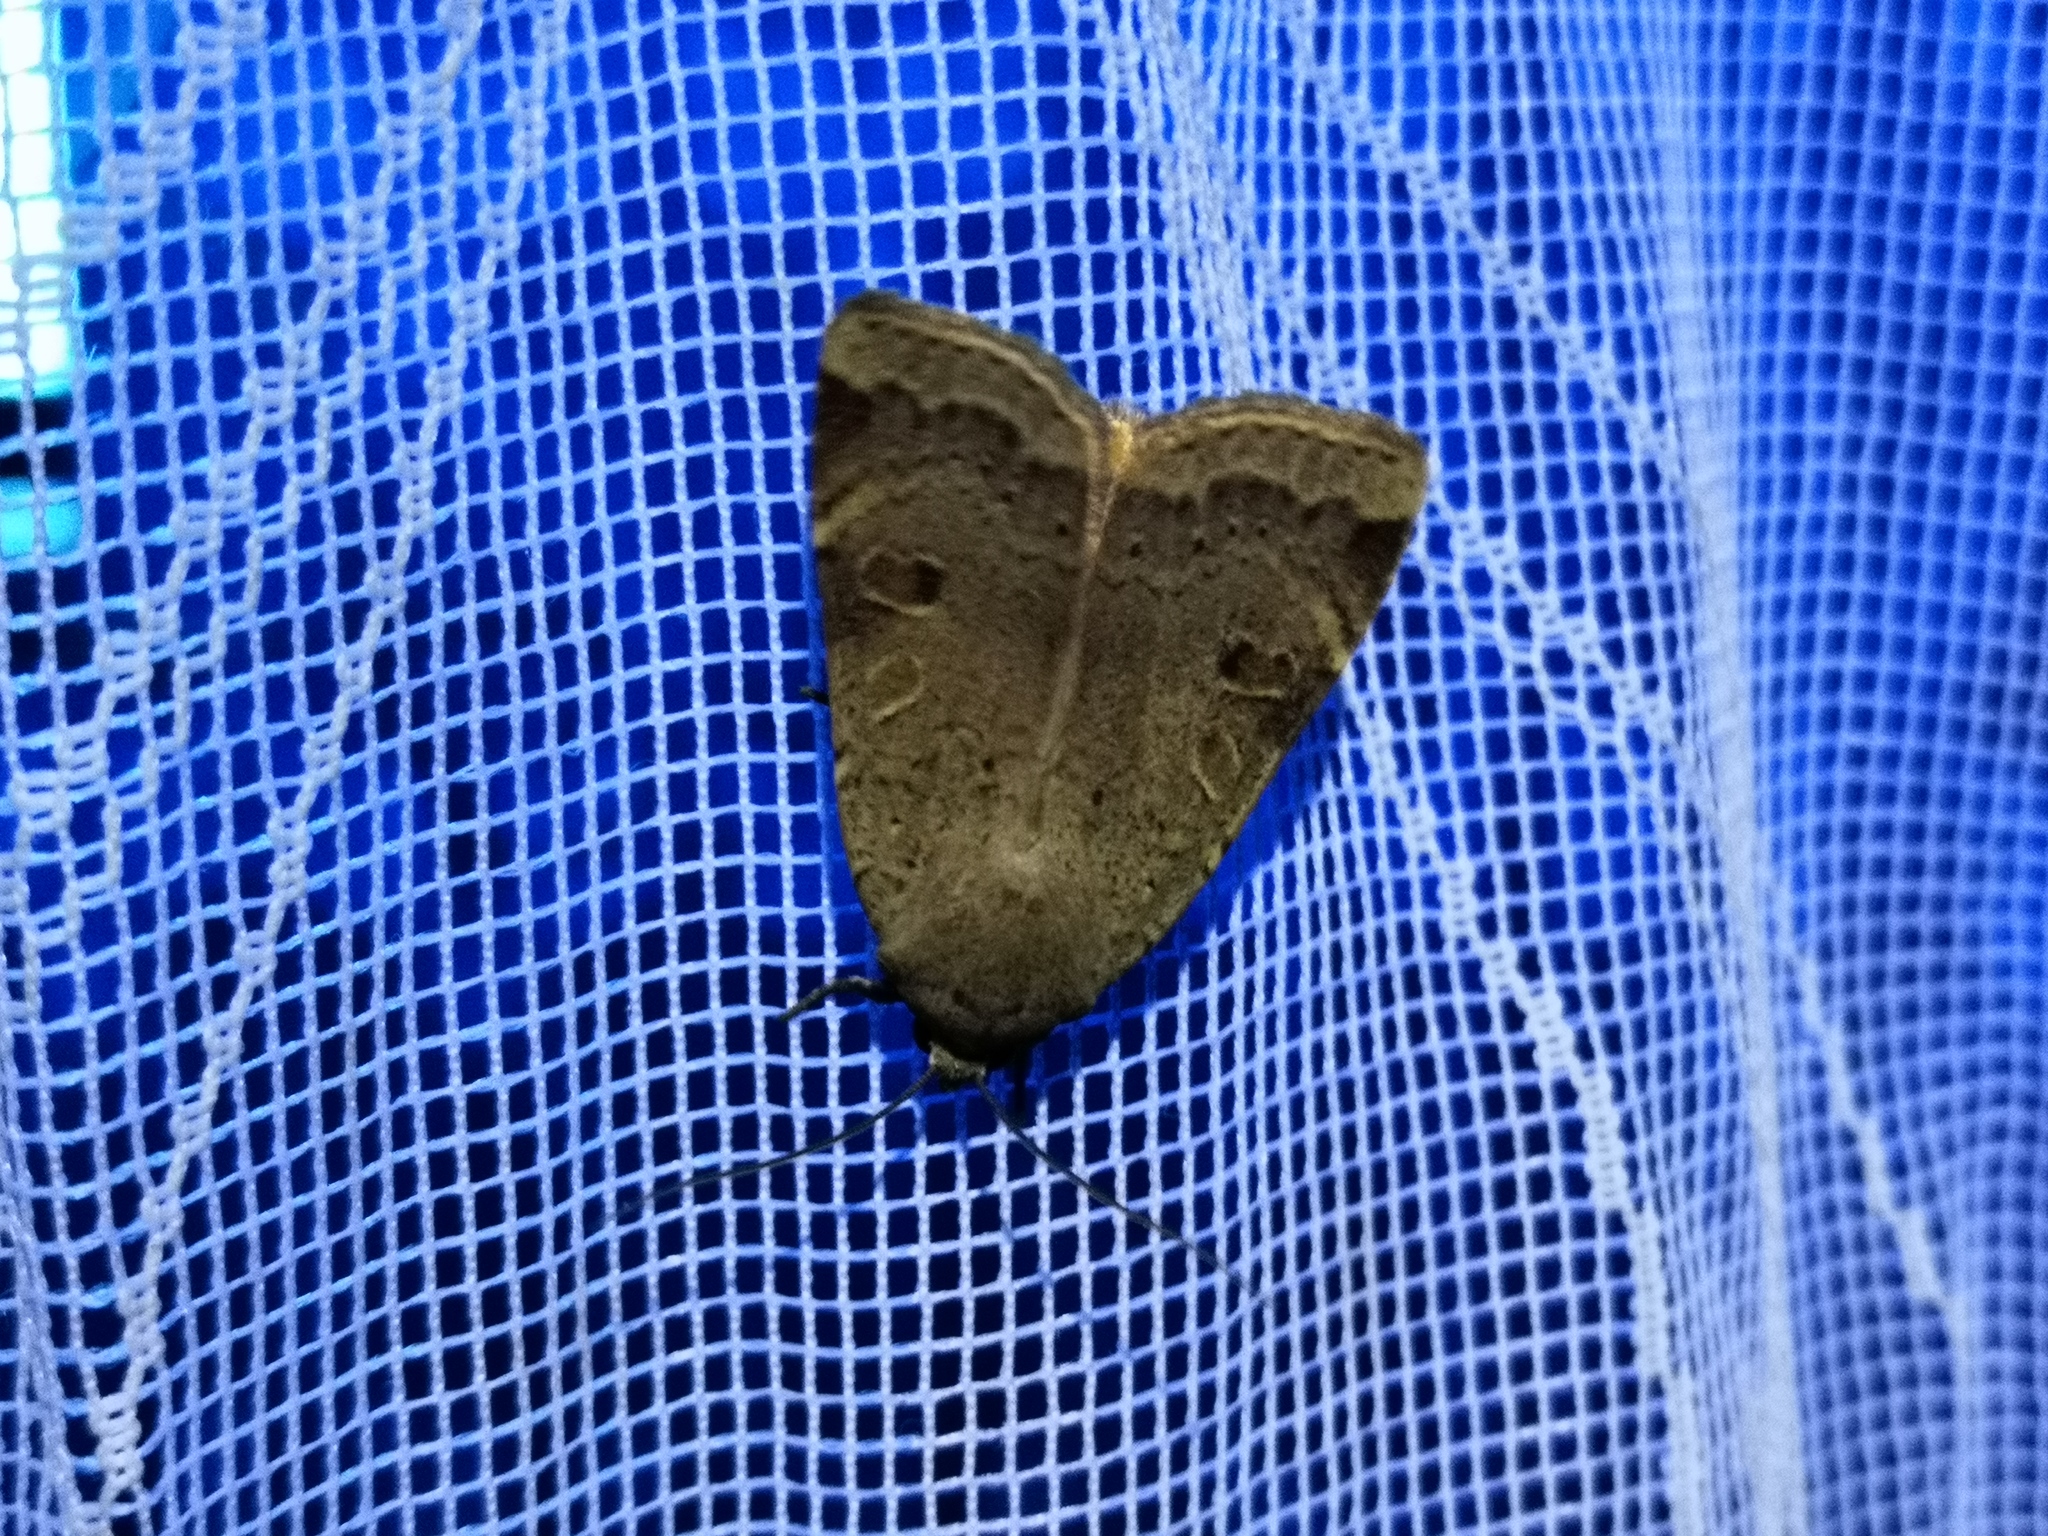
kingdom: Animalia
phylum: Arthropoda
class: Insecta
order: Lepidoptera
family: Noctuidae
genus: Noctua
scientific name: Noctua comes
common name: Lesser yellow underwing
